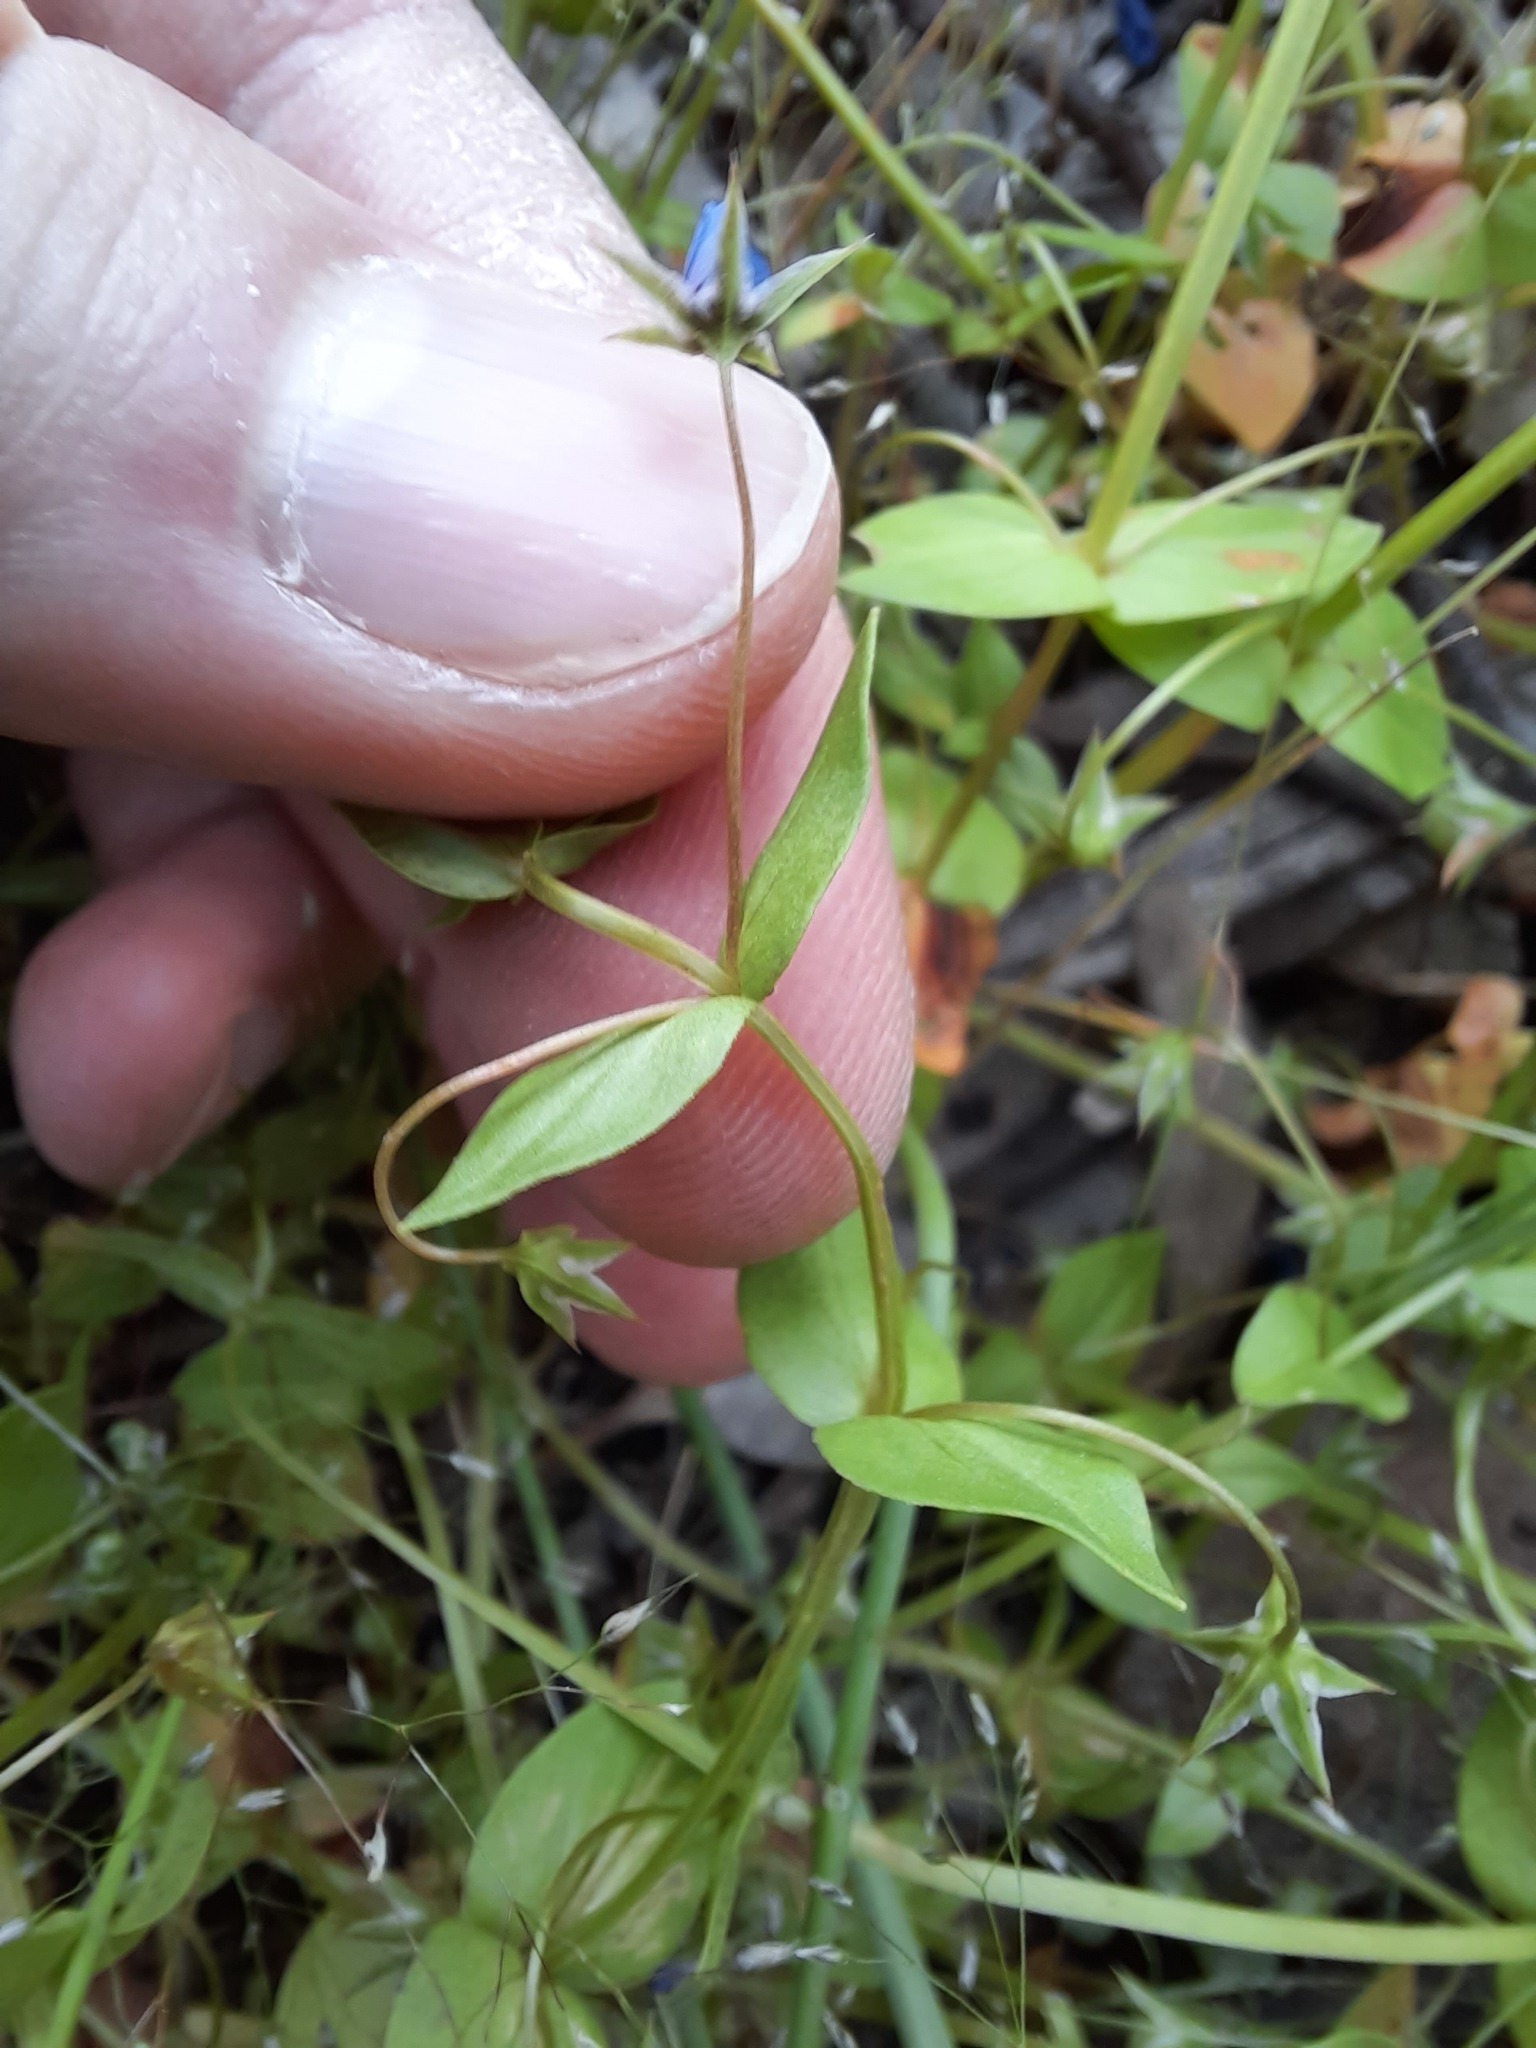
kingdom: Plantae
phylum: Tracheophyta
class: Magnoliopsida
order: Ericales
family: Primulaceae
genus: Lysimachia
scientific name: Lysimachia loeflingii
